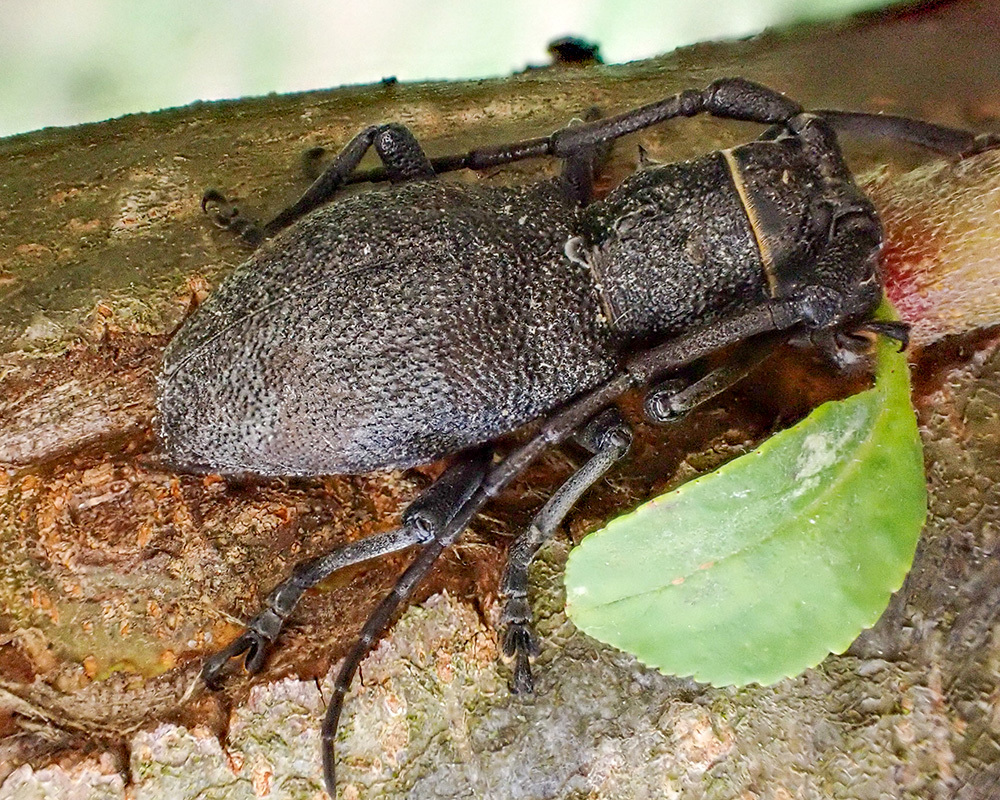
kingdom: Animalia
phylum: Arthropoda
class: Insecta
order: Coleoptera
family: Cerambycidae
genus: Morimus
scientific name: Morimus asper
